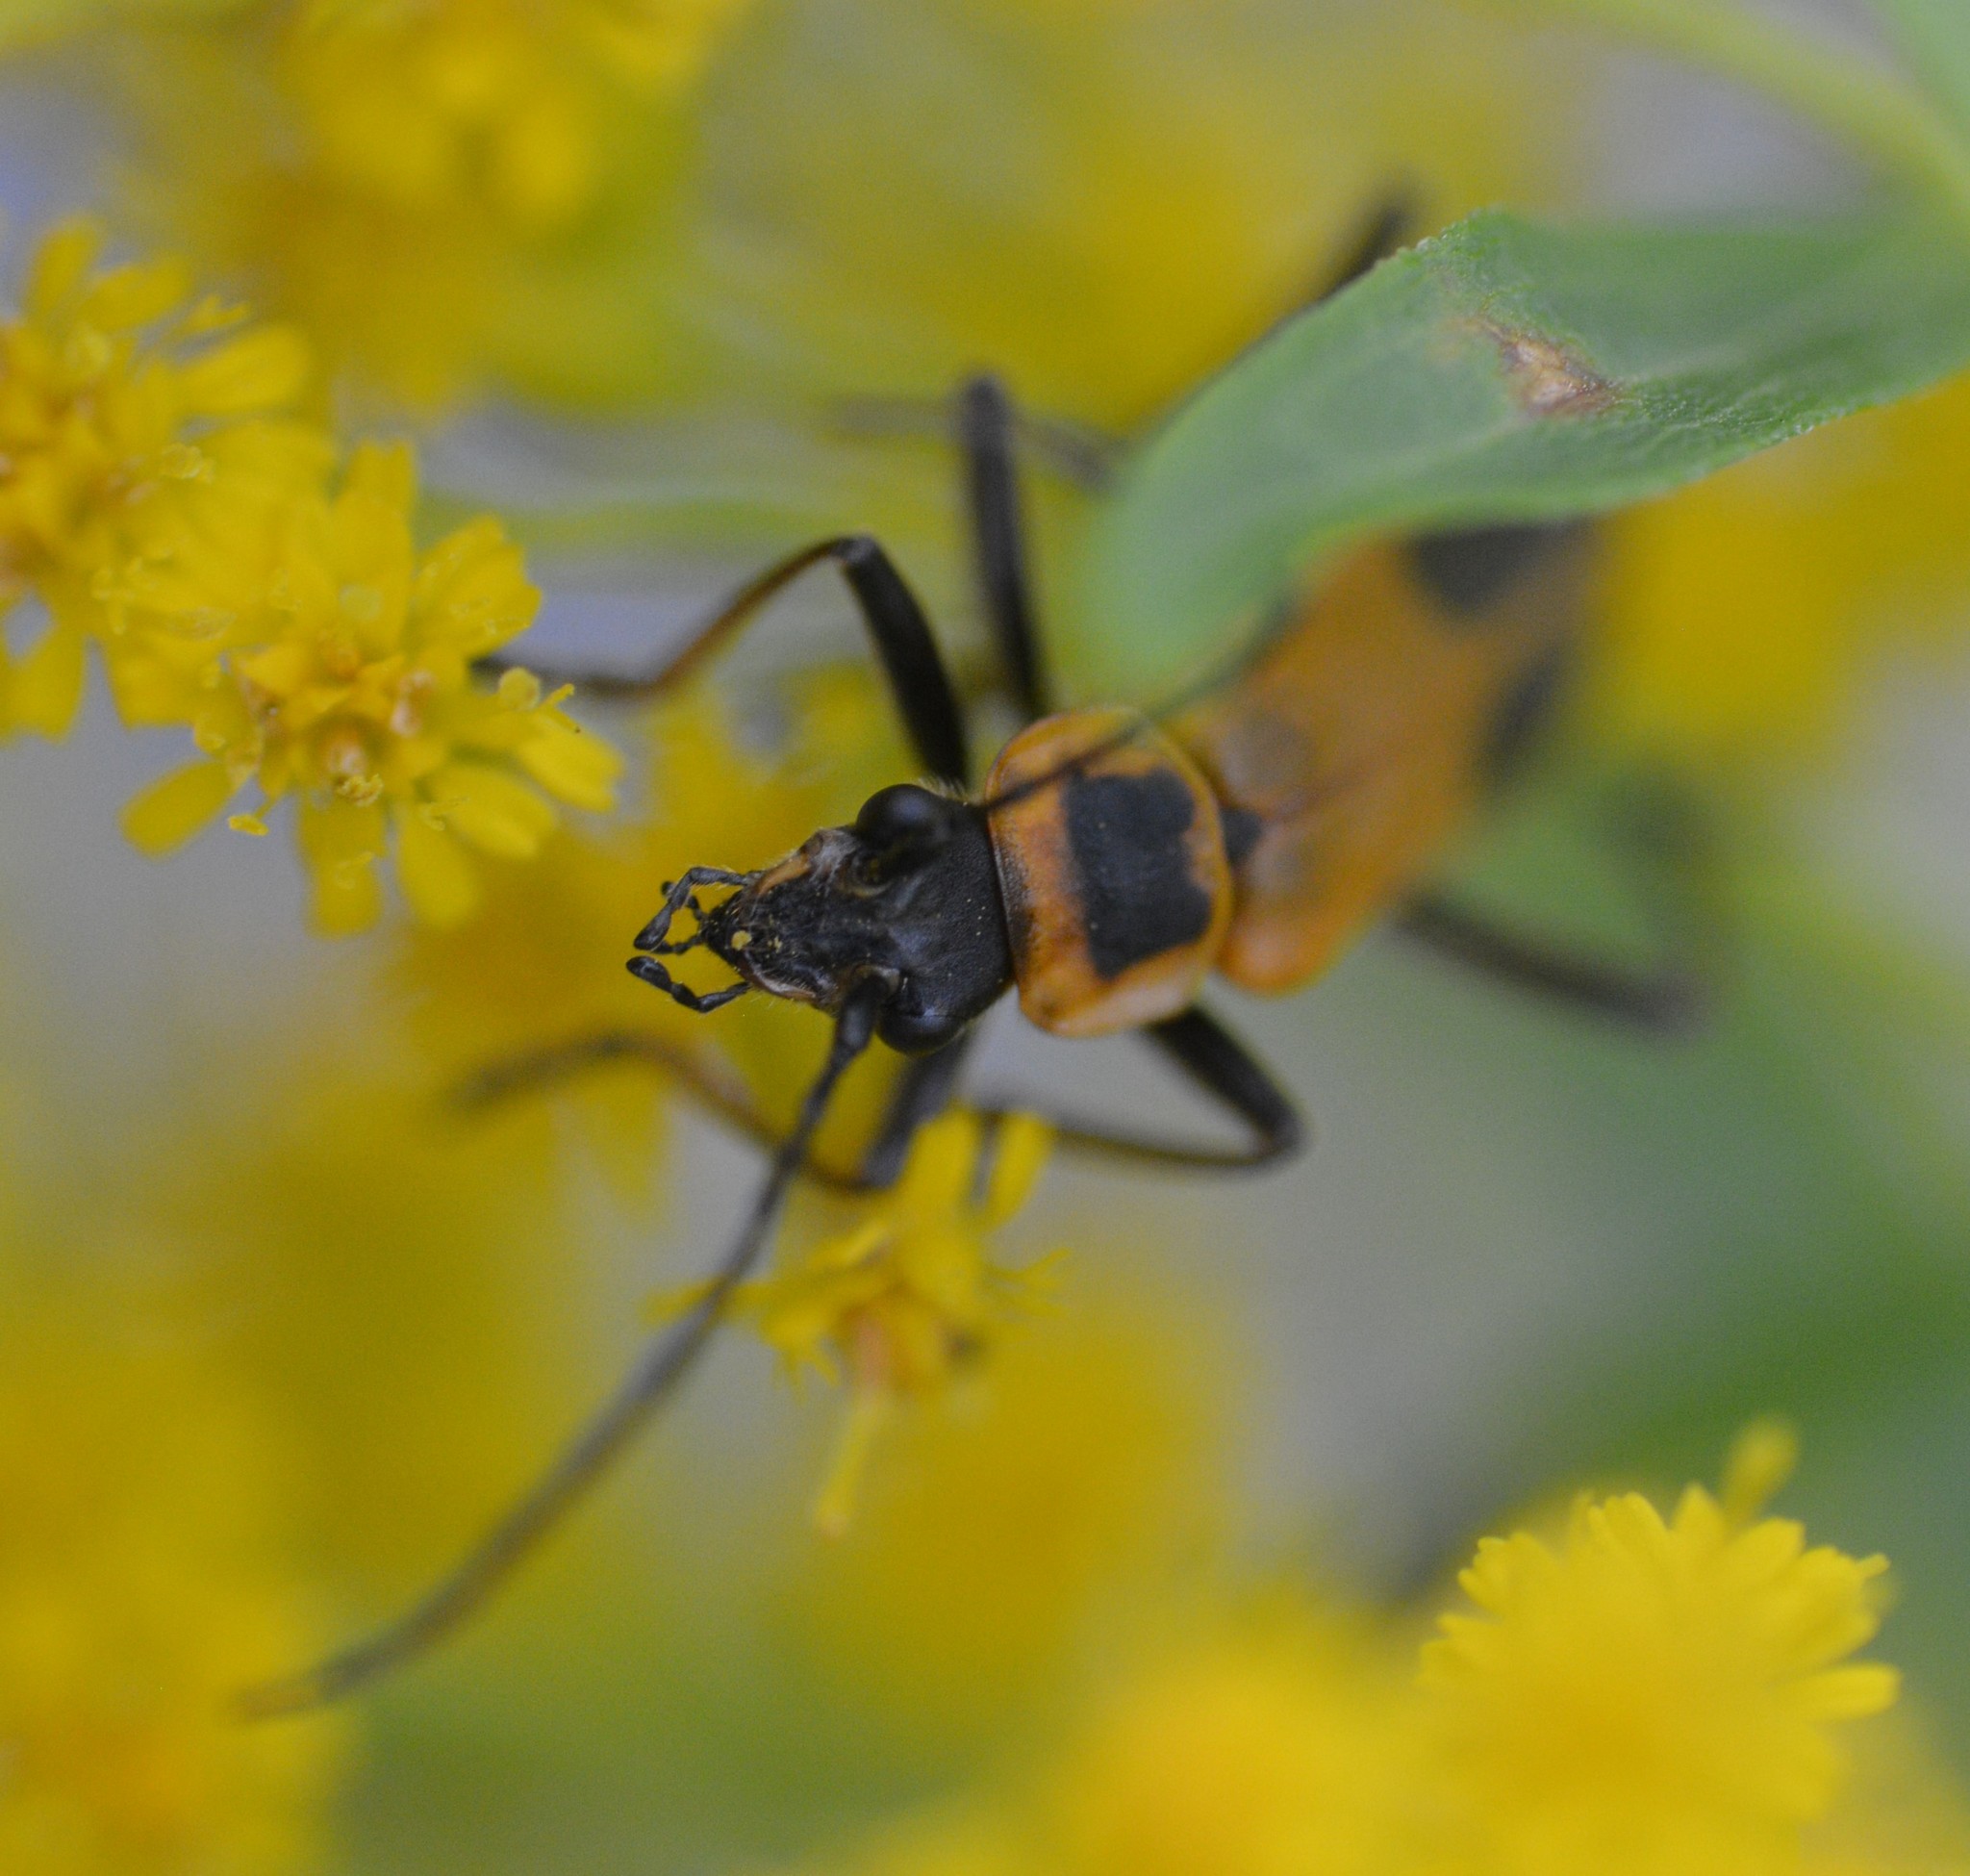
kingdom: Animalia
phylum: Arthropoda
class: Insecta
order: Coleoptera
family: Cantharidae
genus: Chauliognathus
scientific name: Chauliognathus pensylvanicus
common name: Goldenrod soldier beetle
